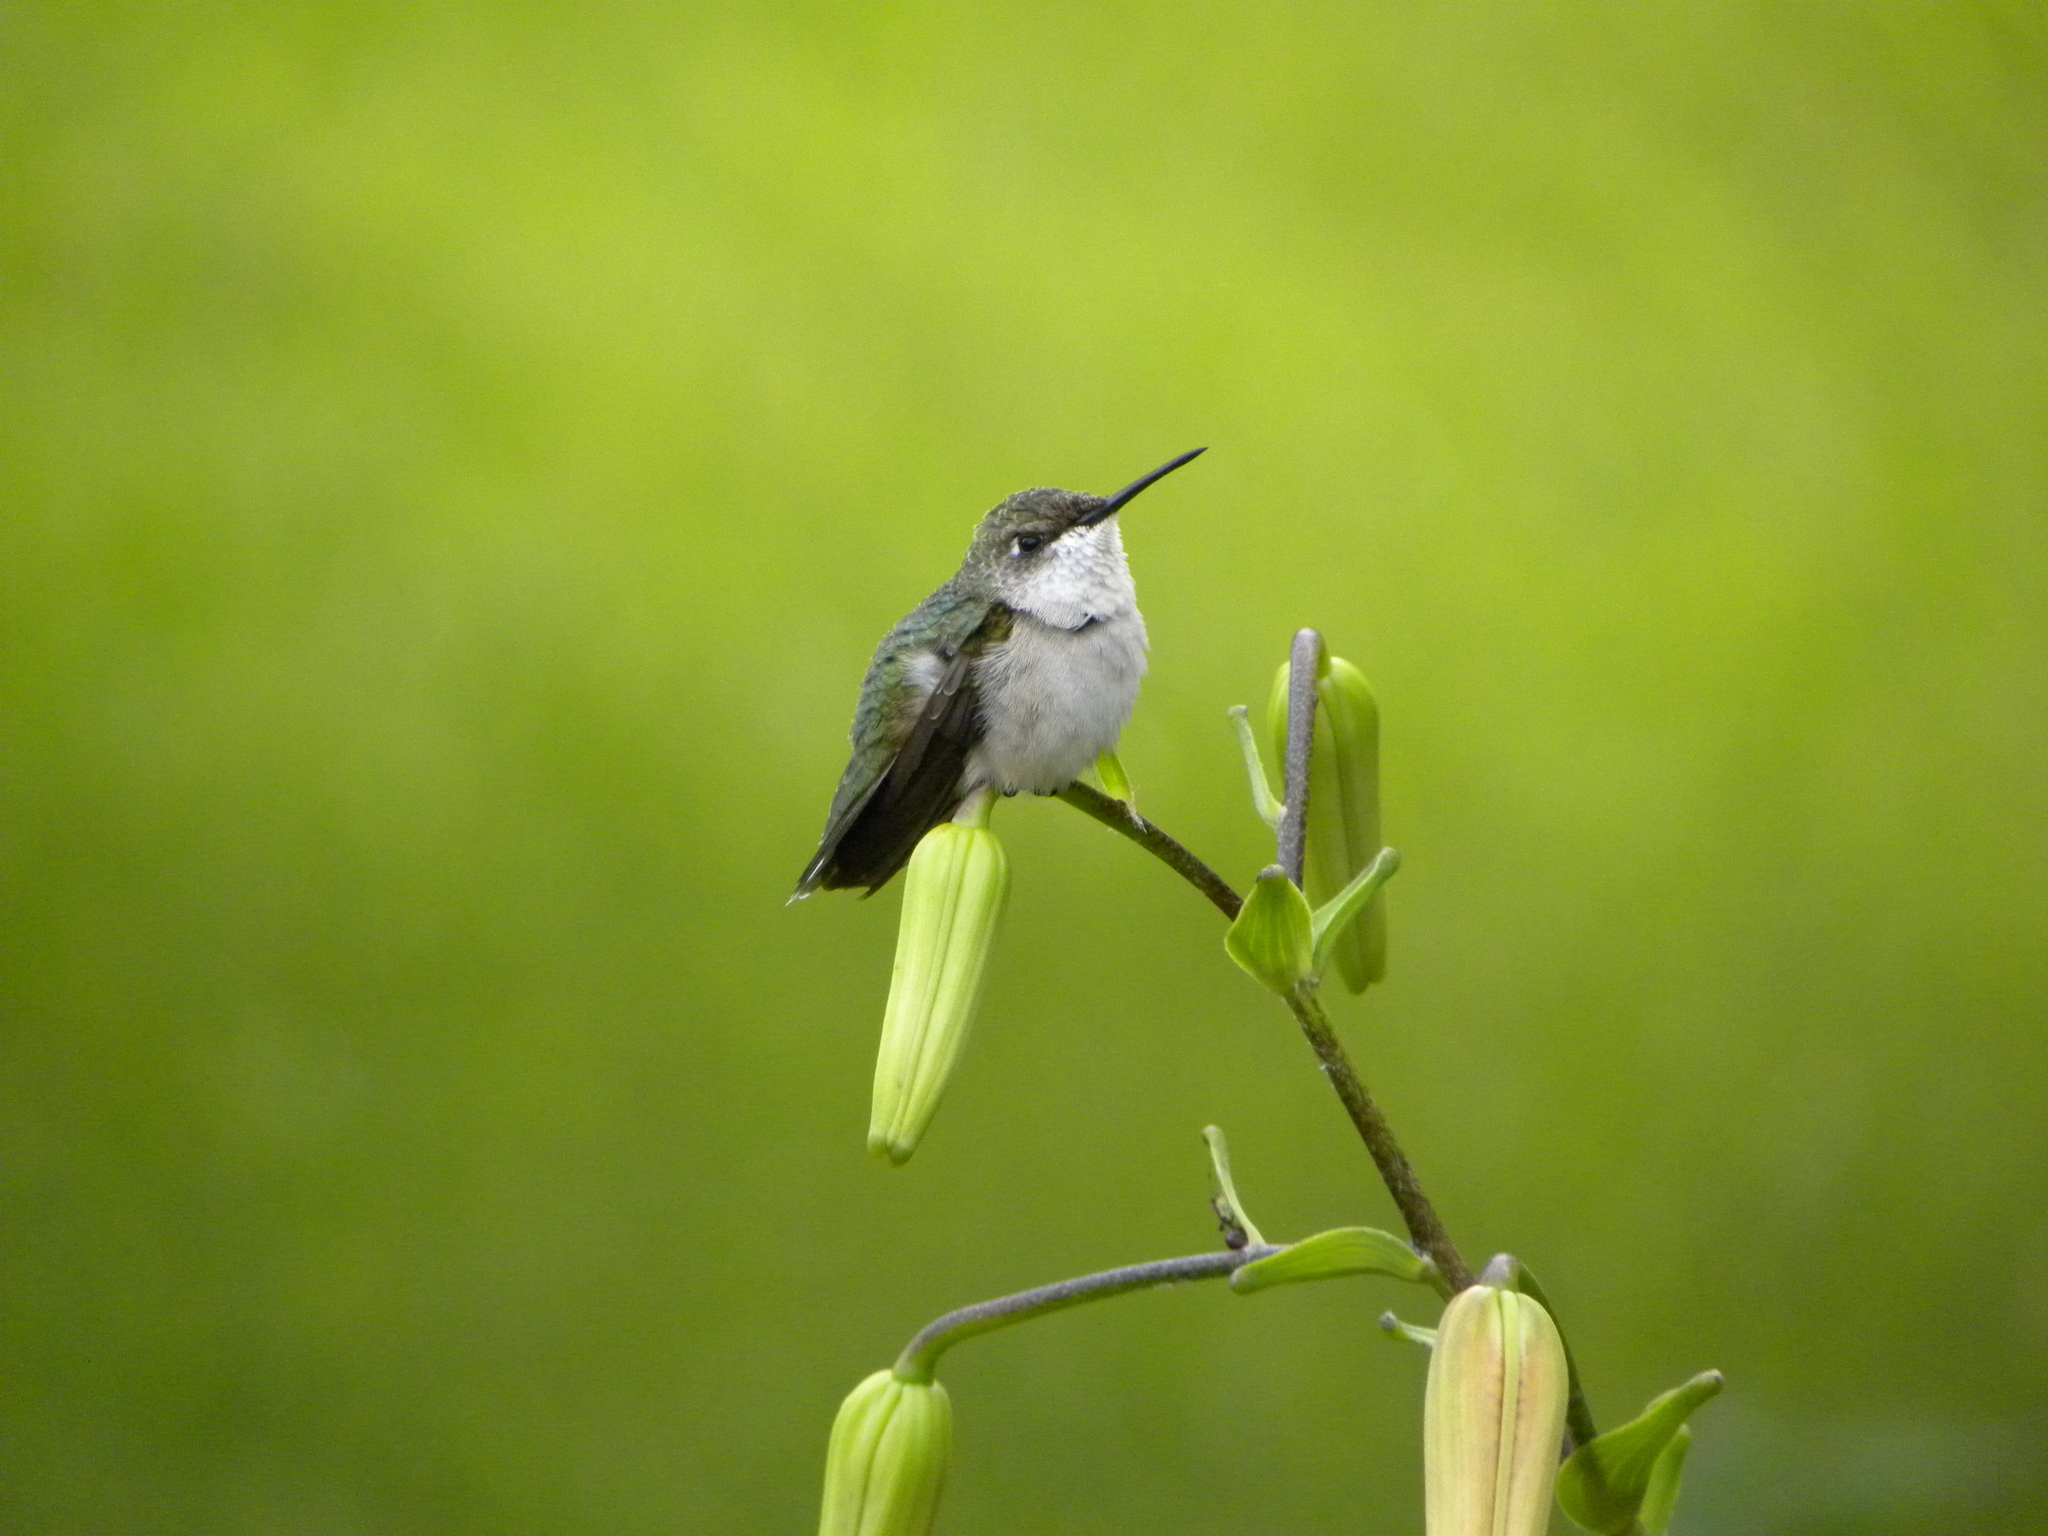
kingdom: Animalia
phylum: Chordata
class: Aves
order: Apodiformes
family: Trochilidae
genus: Archilochus
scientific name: Archilochus colubris
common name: Ruby-throated hummingbird
